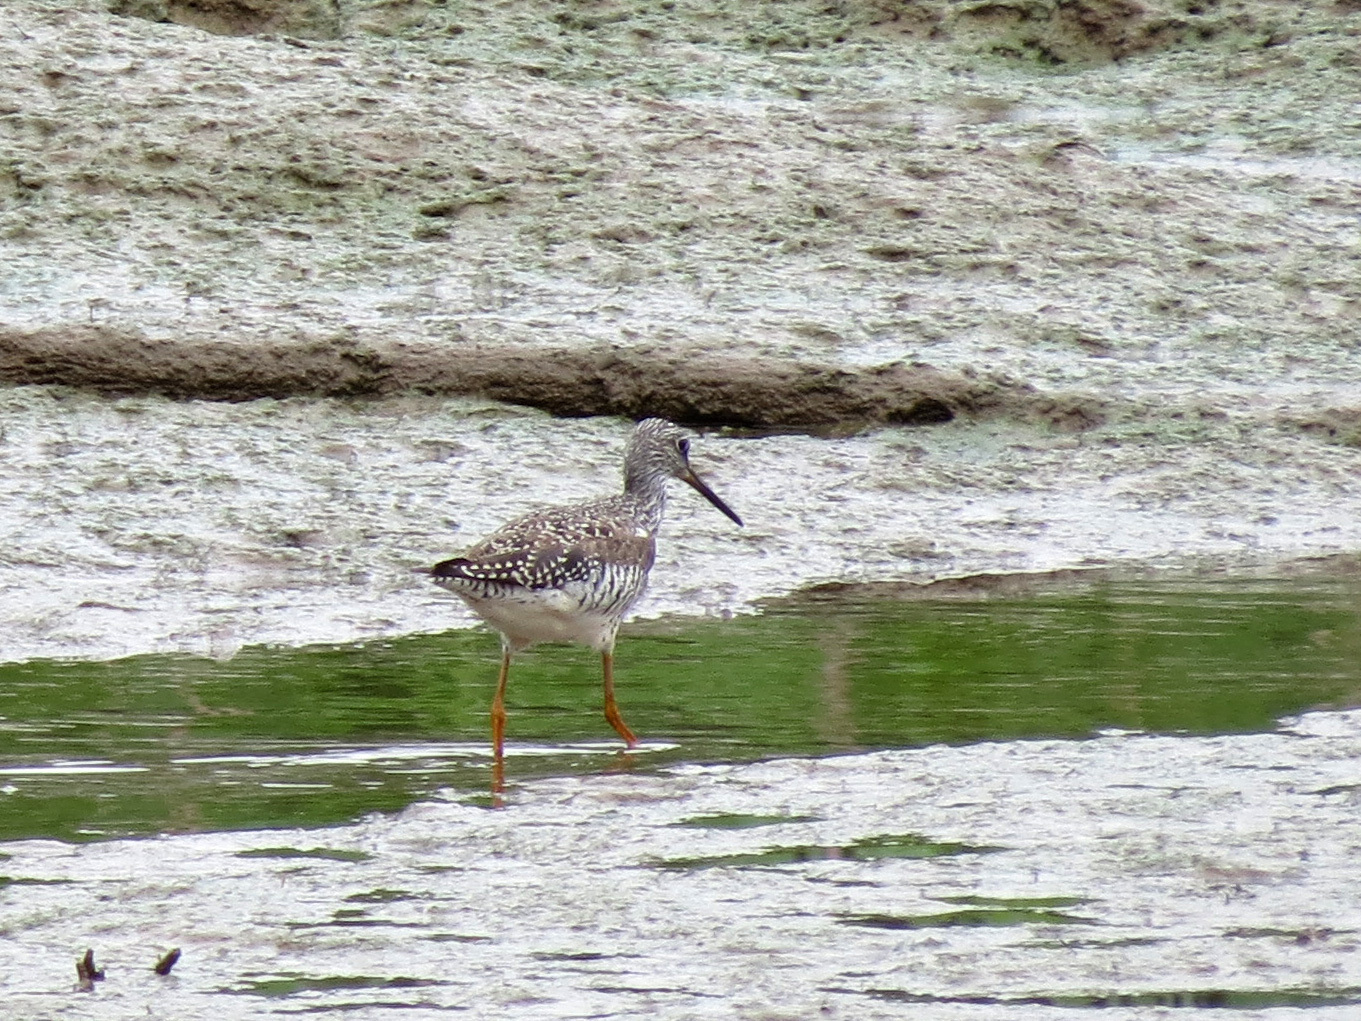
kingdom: Animalia
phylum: Chordata
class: Aves
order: Charadriiformes
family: Scolopacidae
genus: Tringa
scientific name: Tringa melanoleuca
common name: Greater yellowlegs
